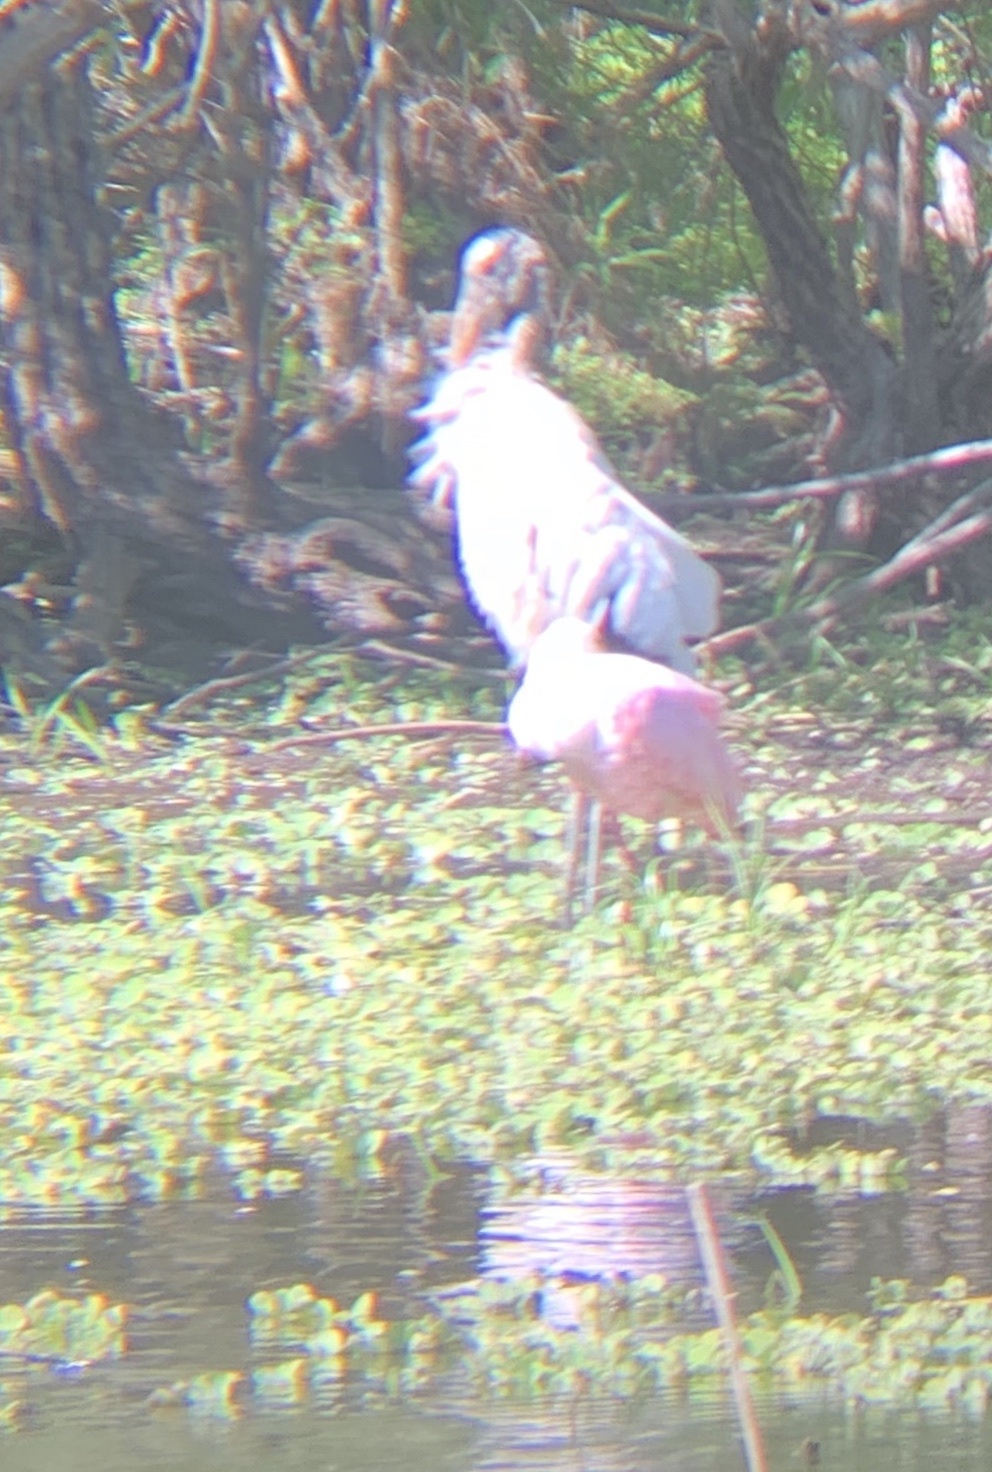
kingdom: Animalia
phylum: Chordata
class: Aves
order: Pelecaniformes
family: Threskiornithidae
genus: Platalea
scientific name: Platalea ajaja
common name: Roseate spoonbill
